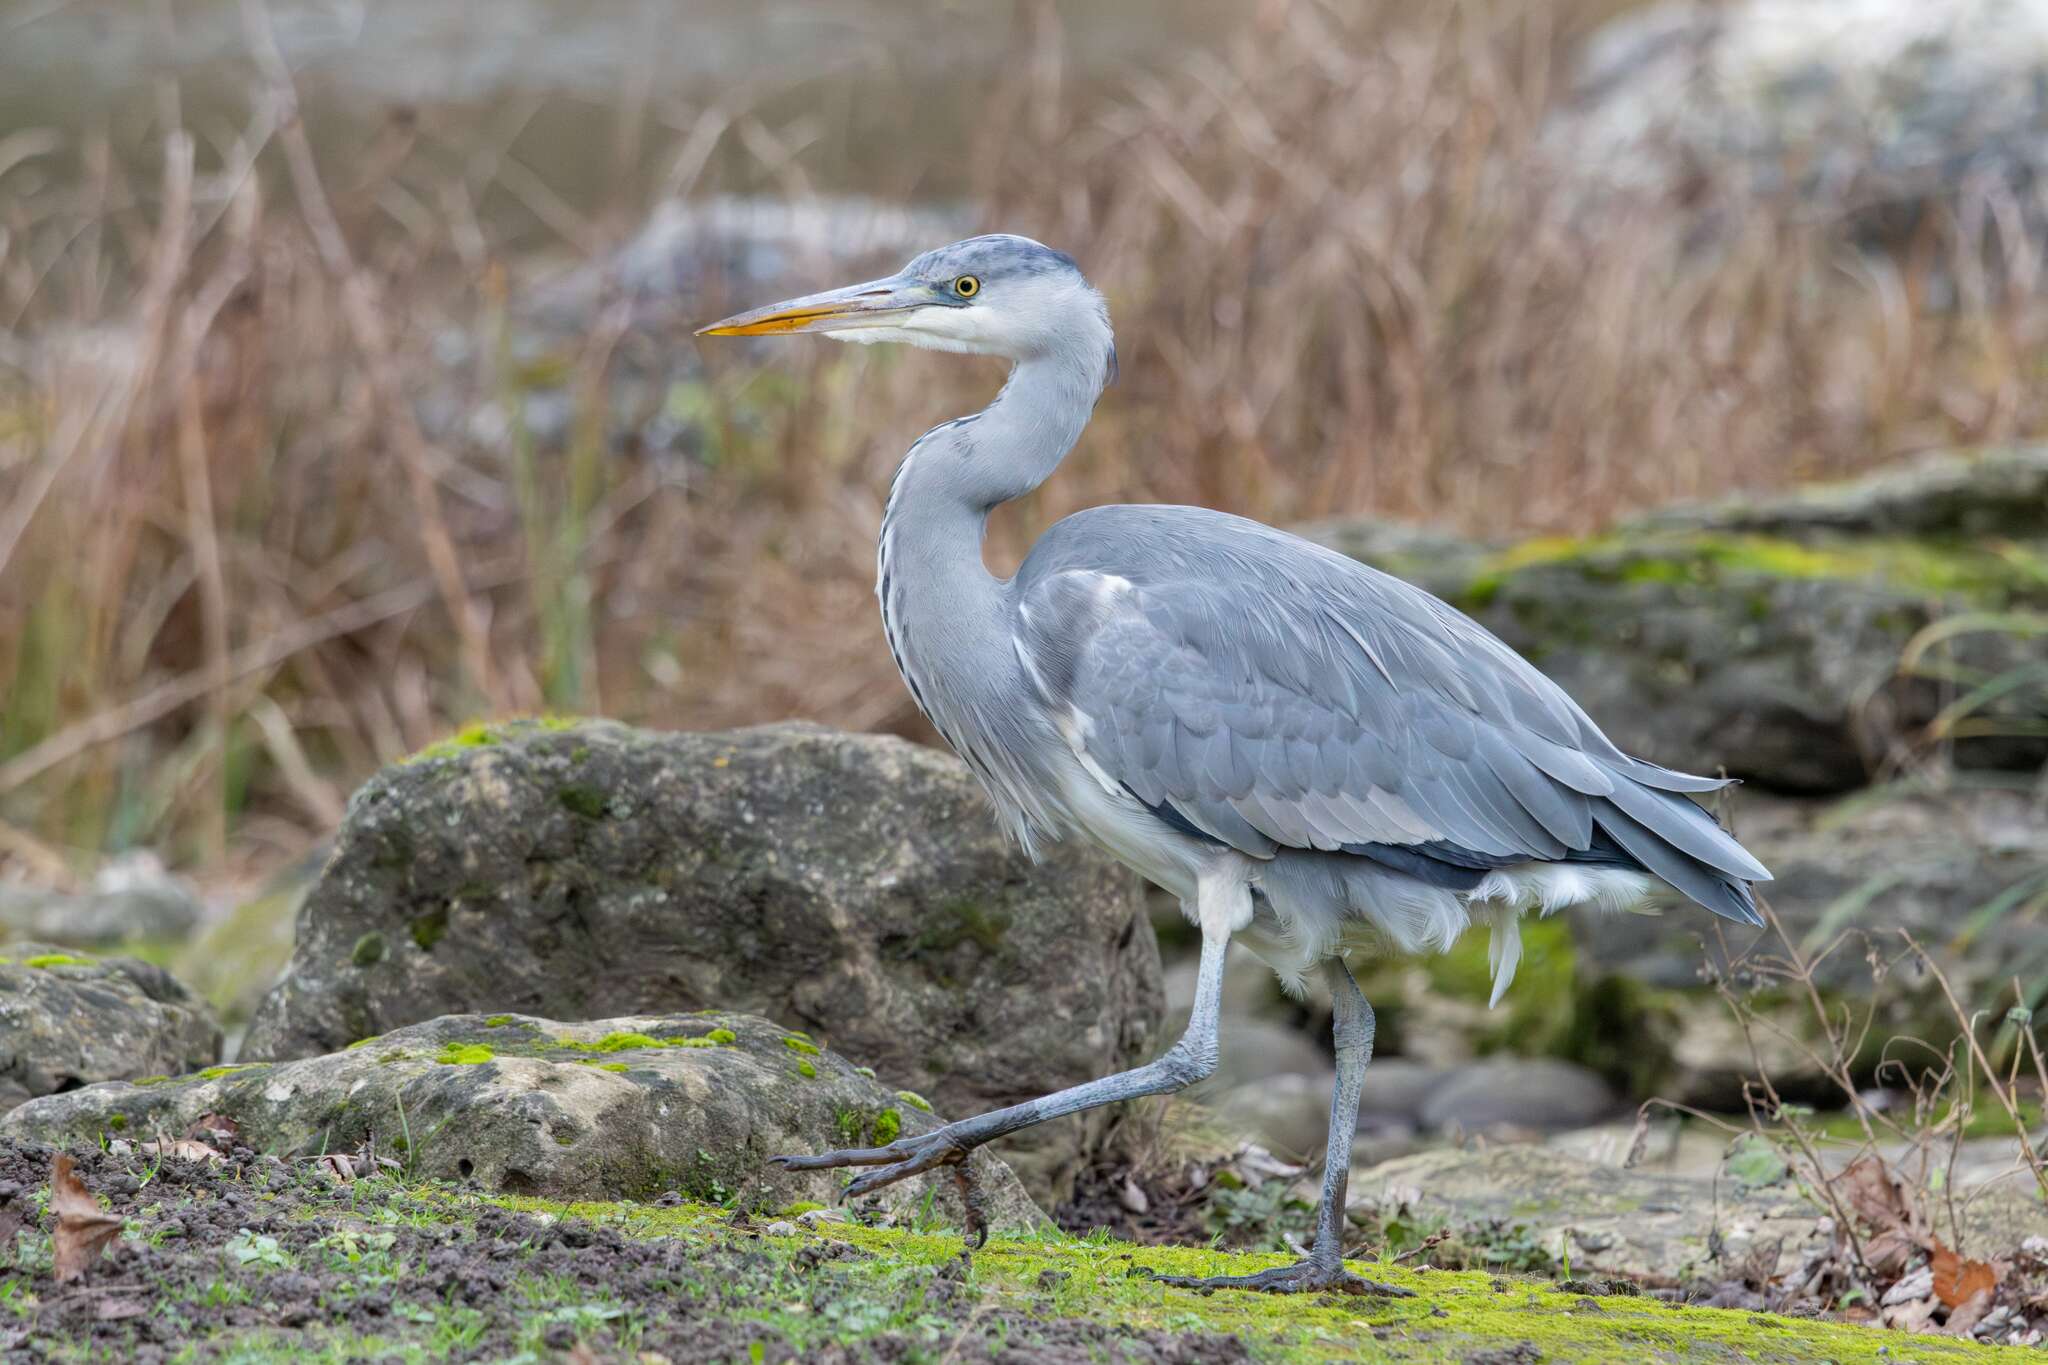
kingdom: Animalia
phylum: Chordata
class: Aves
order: Pelecaniformes
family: Ardeidae
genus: Ardea
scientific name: Ardea cinerea
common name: Grey heron
